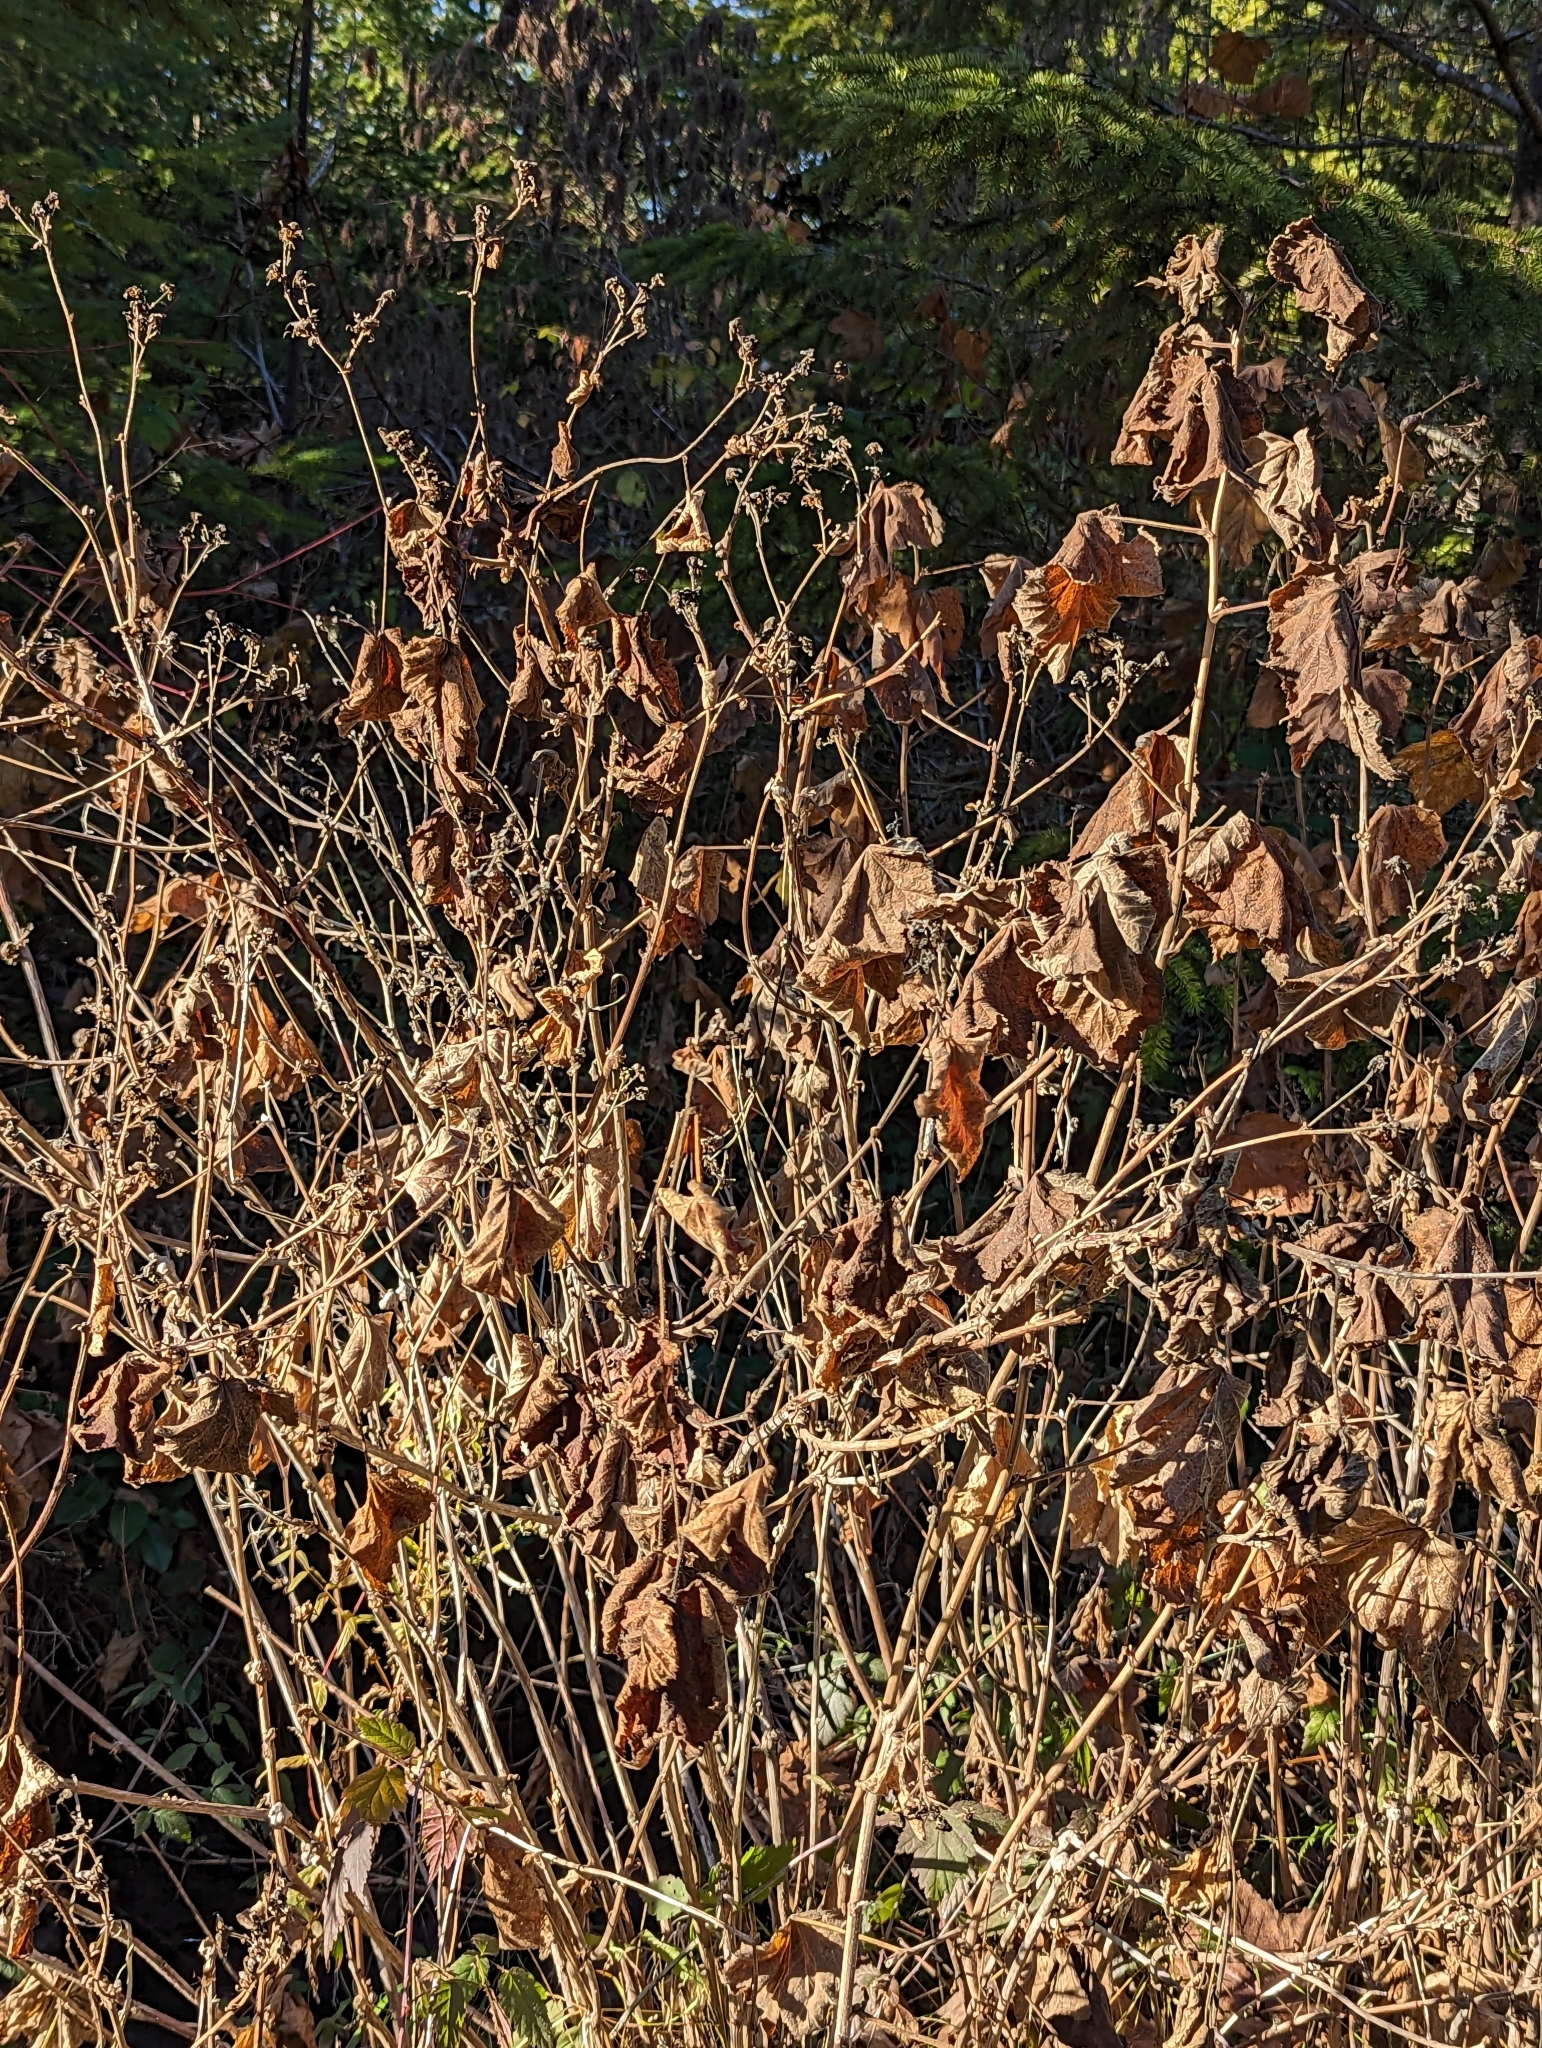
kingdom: Plantae
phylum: Tracheophyta
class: Magnoliopsida
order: Rosales
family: Rosaceae
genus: Rubus
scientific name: Rubus parviflorus
